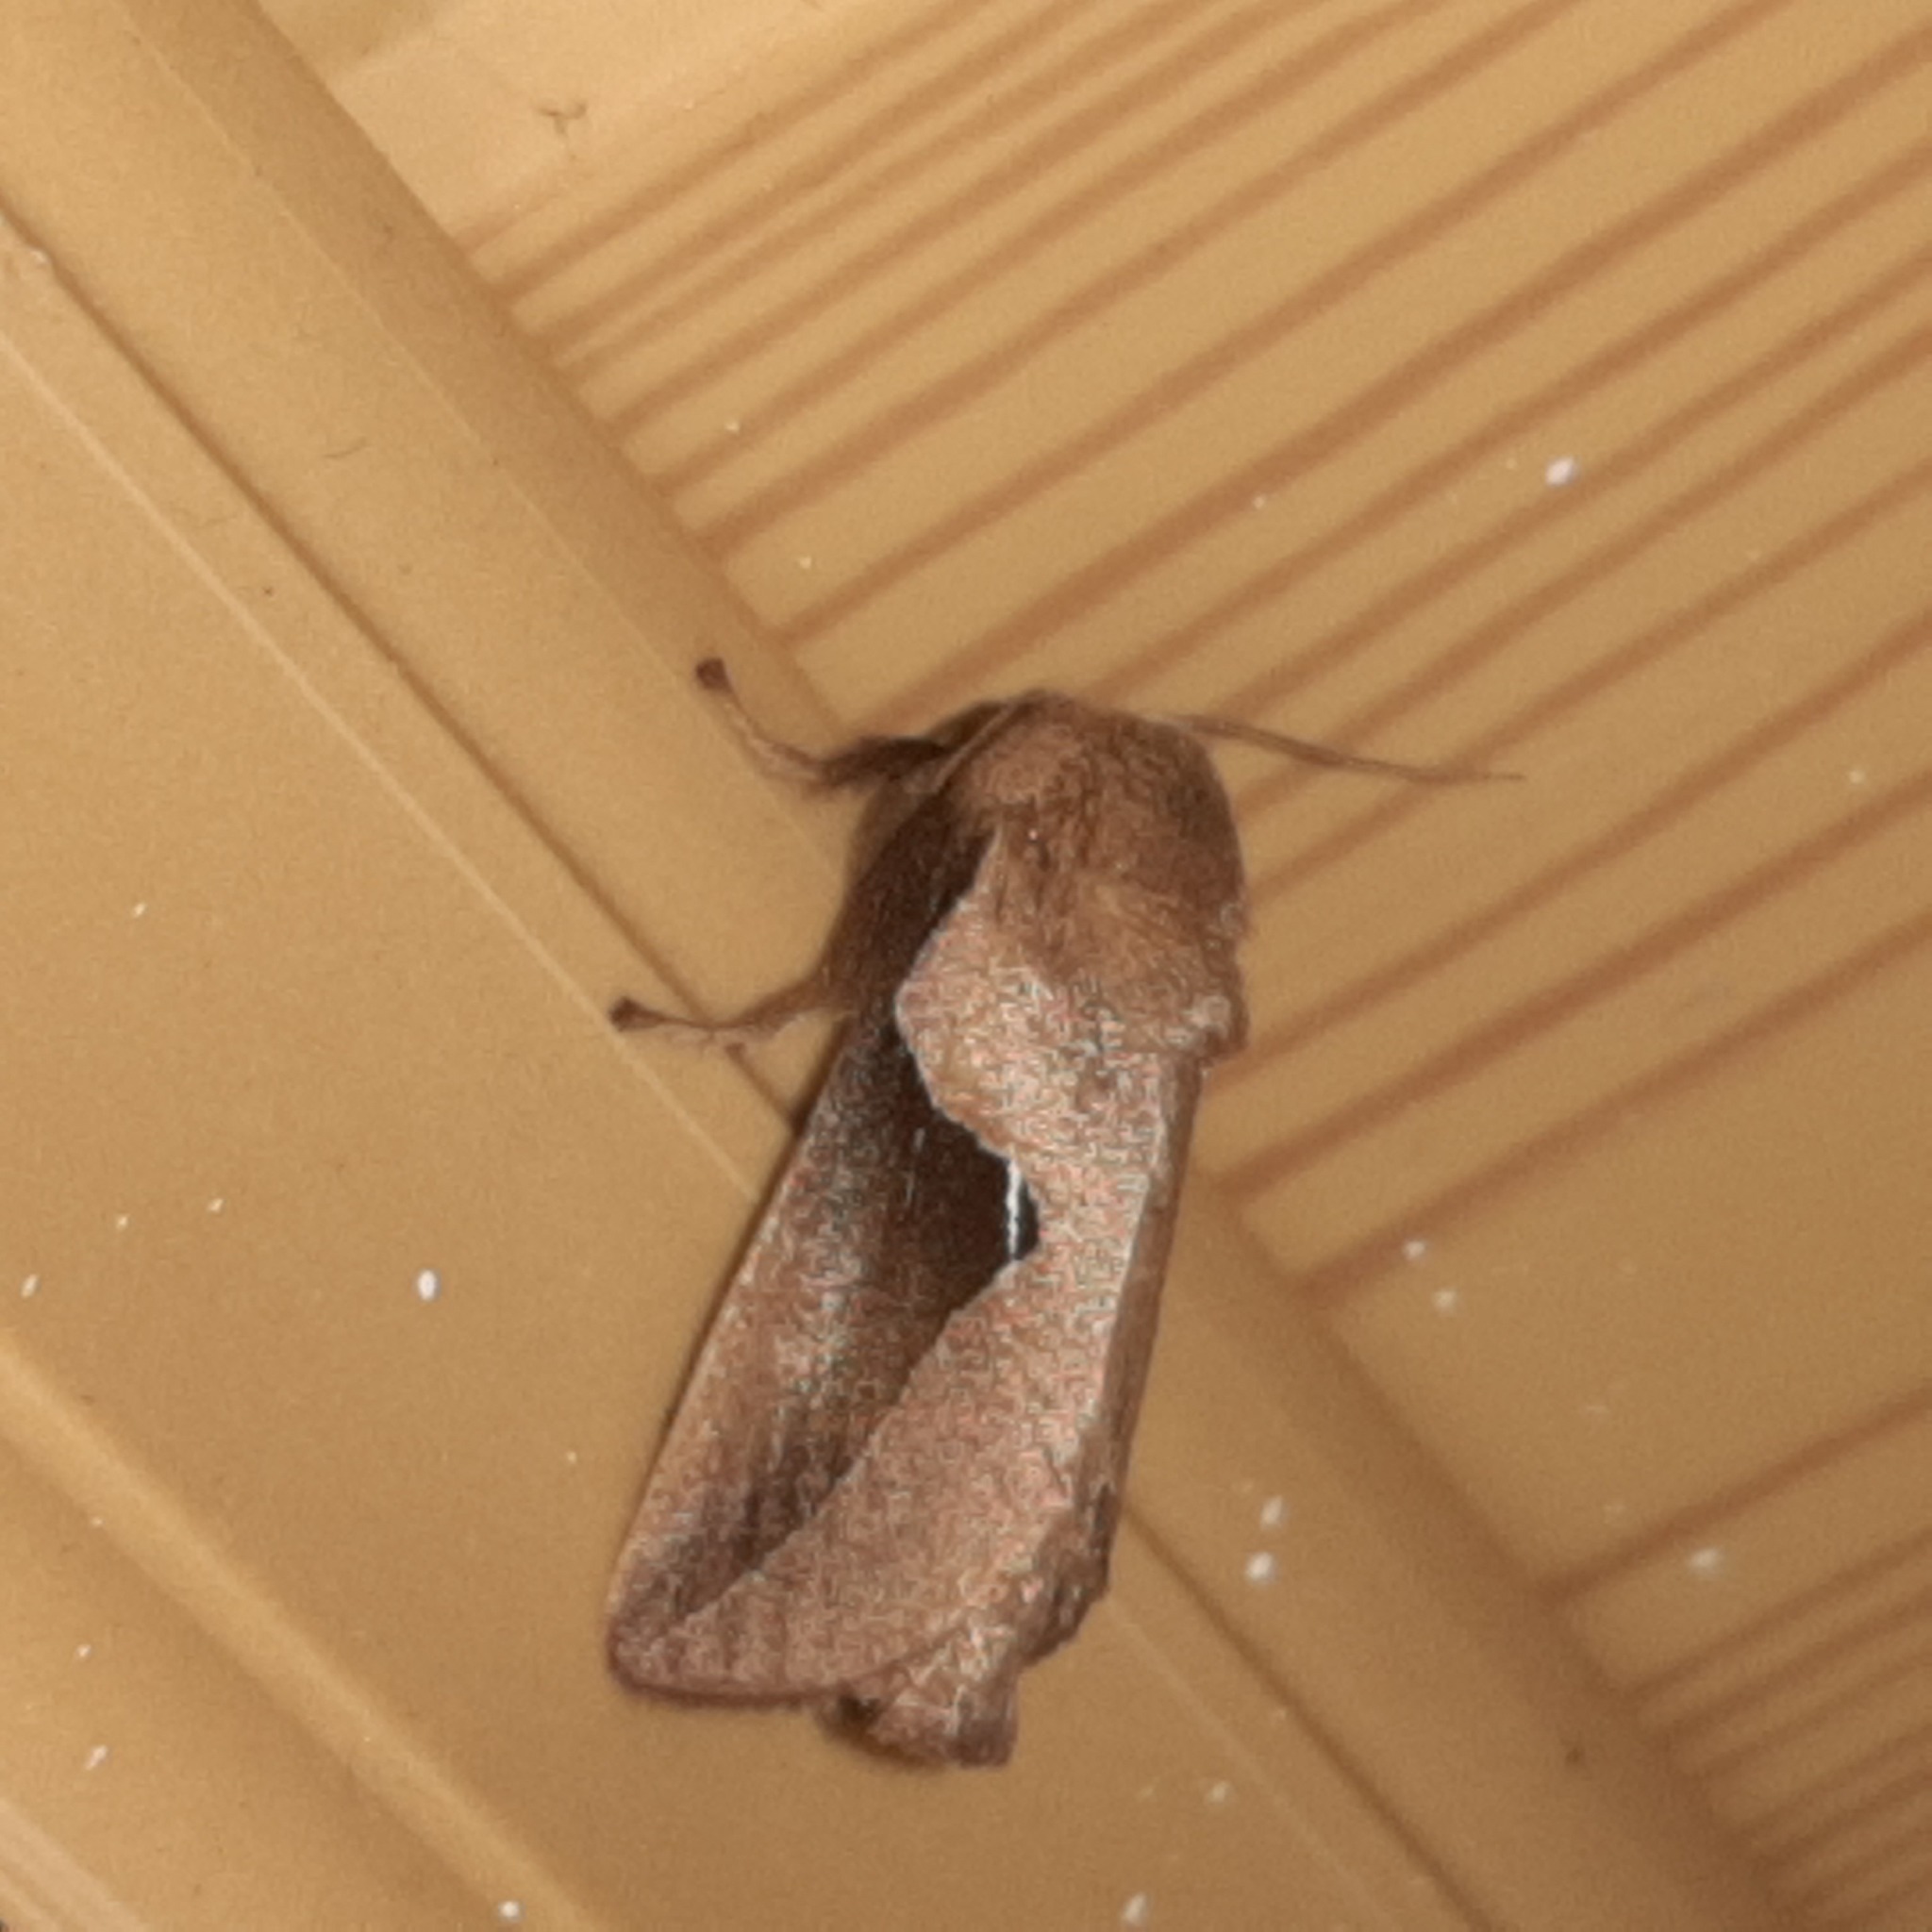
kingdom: Animalia
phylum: Arthropoda
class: Insecta
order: Lepidoptera
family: Limacodidae
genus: Prolimacodes
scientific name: Prolimacodes triangulifera
